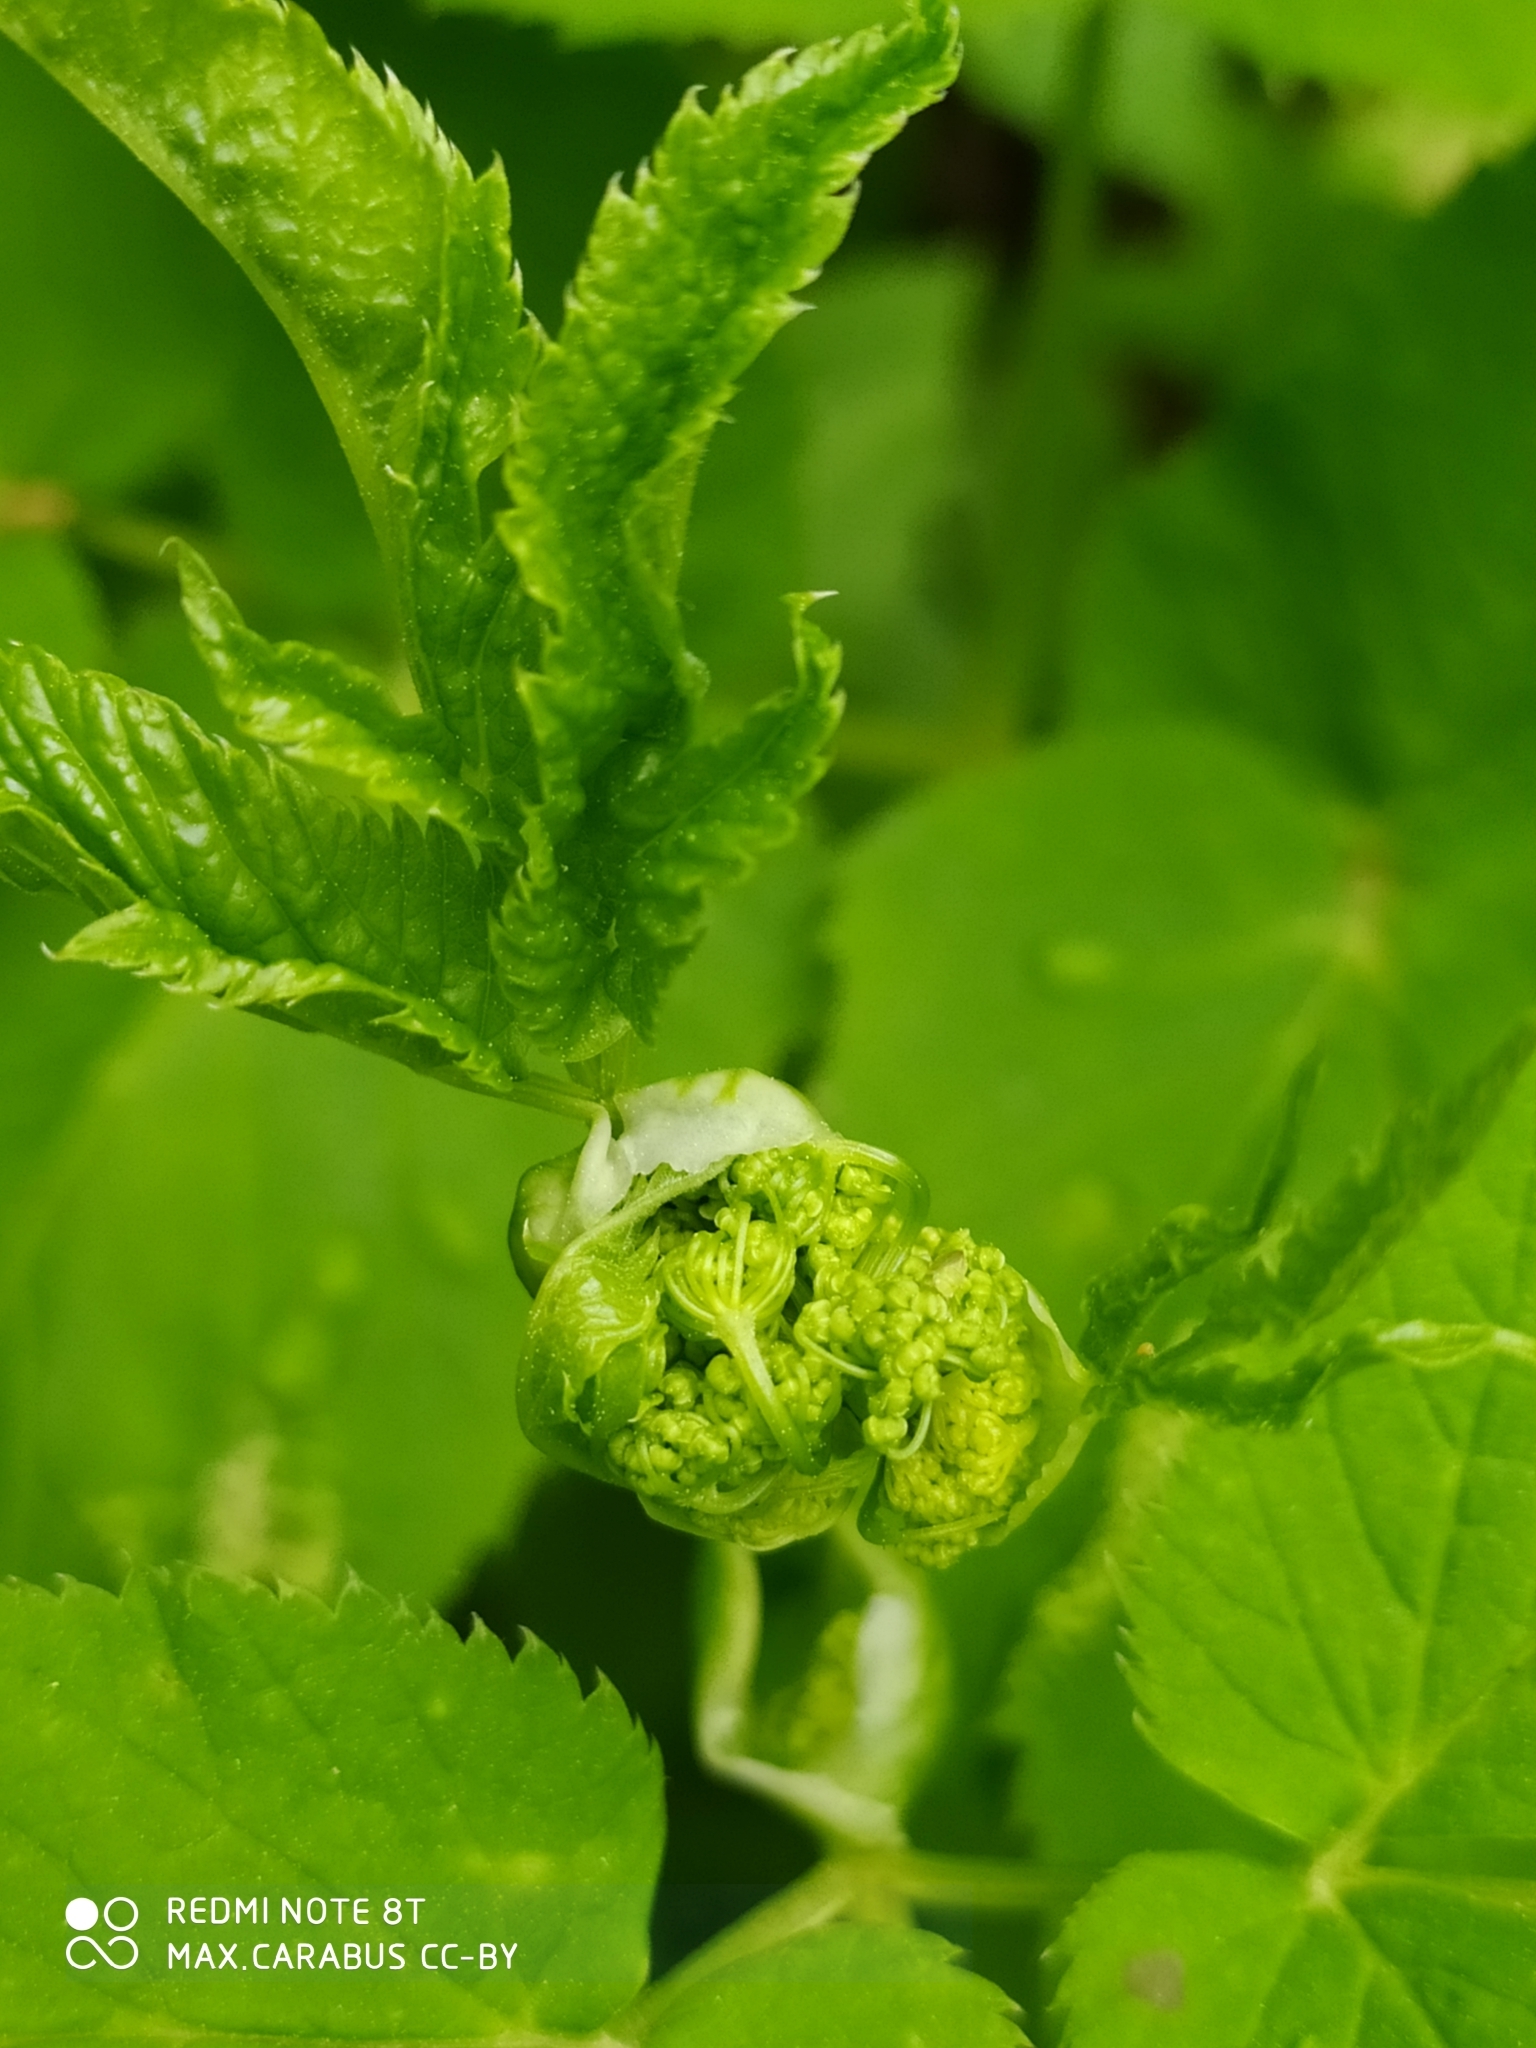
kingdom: Plantae
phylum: Tracheophyta
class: Magnoliopsida
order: Apiales
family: Apiaceae
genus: Aegopodium
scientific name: Aegopodium podagraria
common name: Ground-elder
